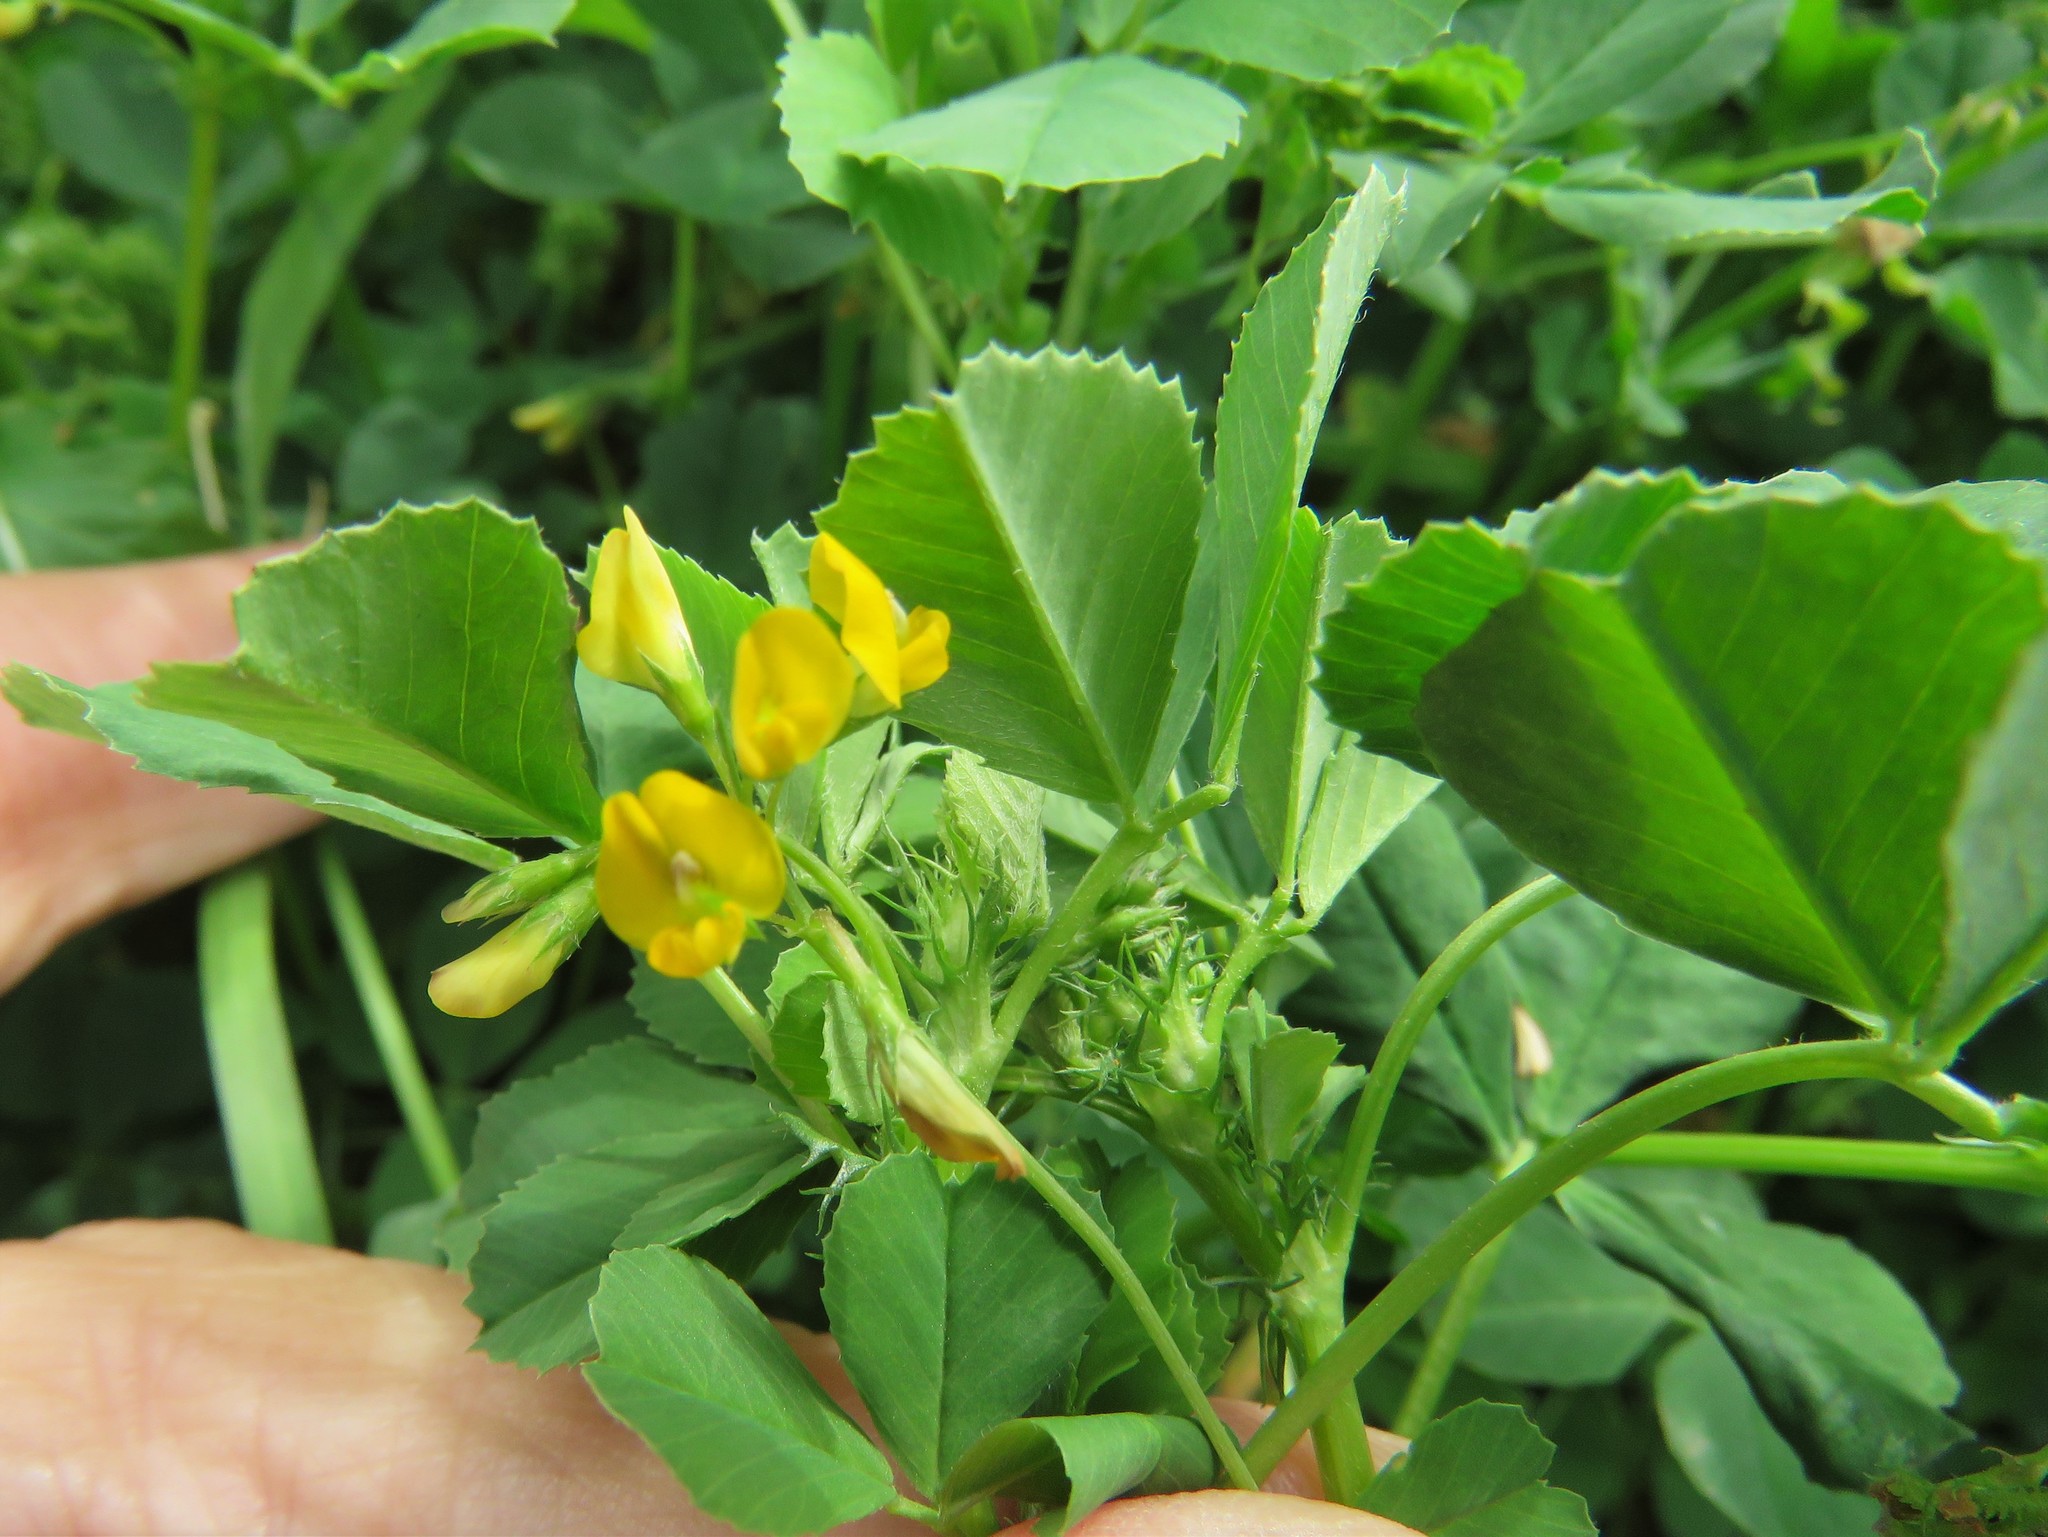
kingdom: Plantae
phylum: Tracheophyta
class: Magnoliopsida
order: Fabales
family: Fabaceae
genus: Medicago
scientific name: Medicago polymorpha
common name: Burclover
